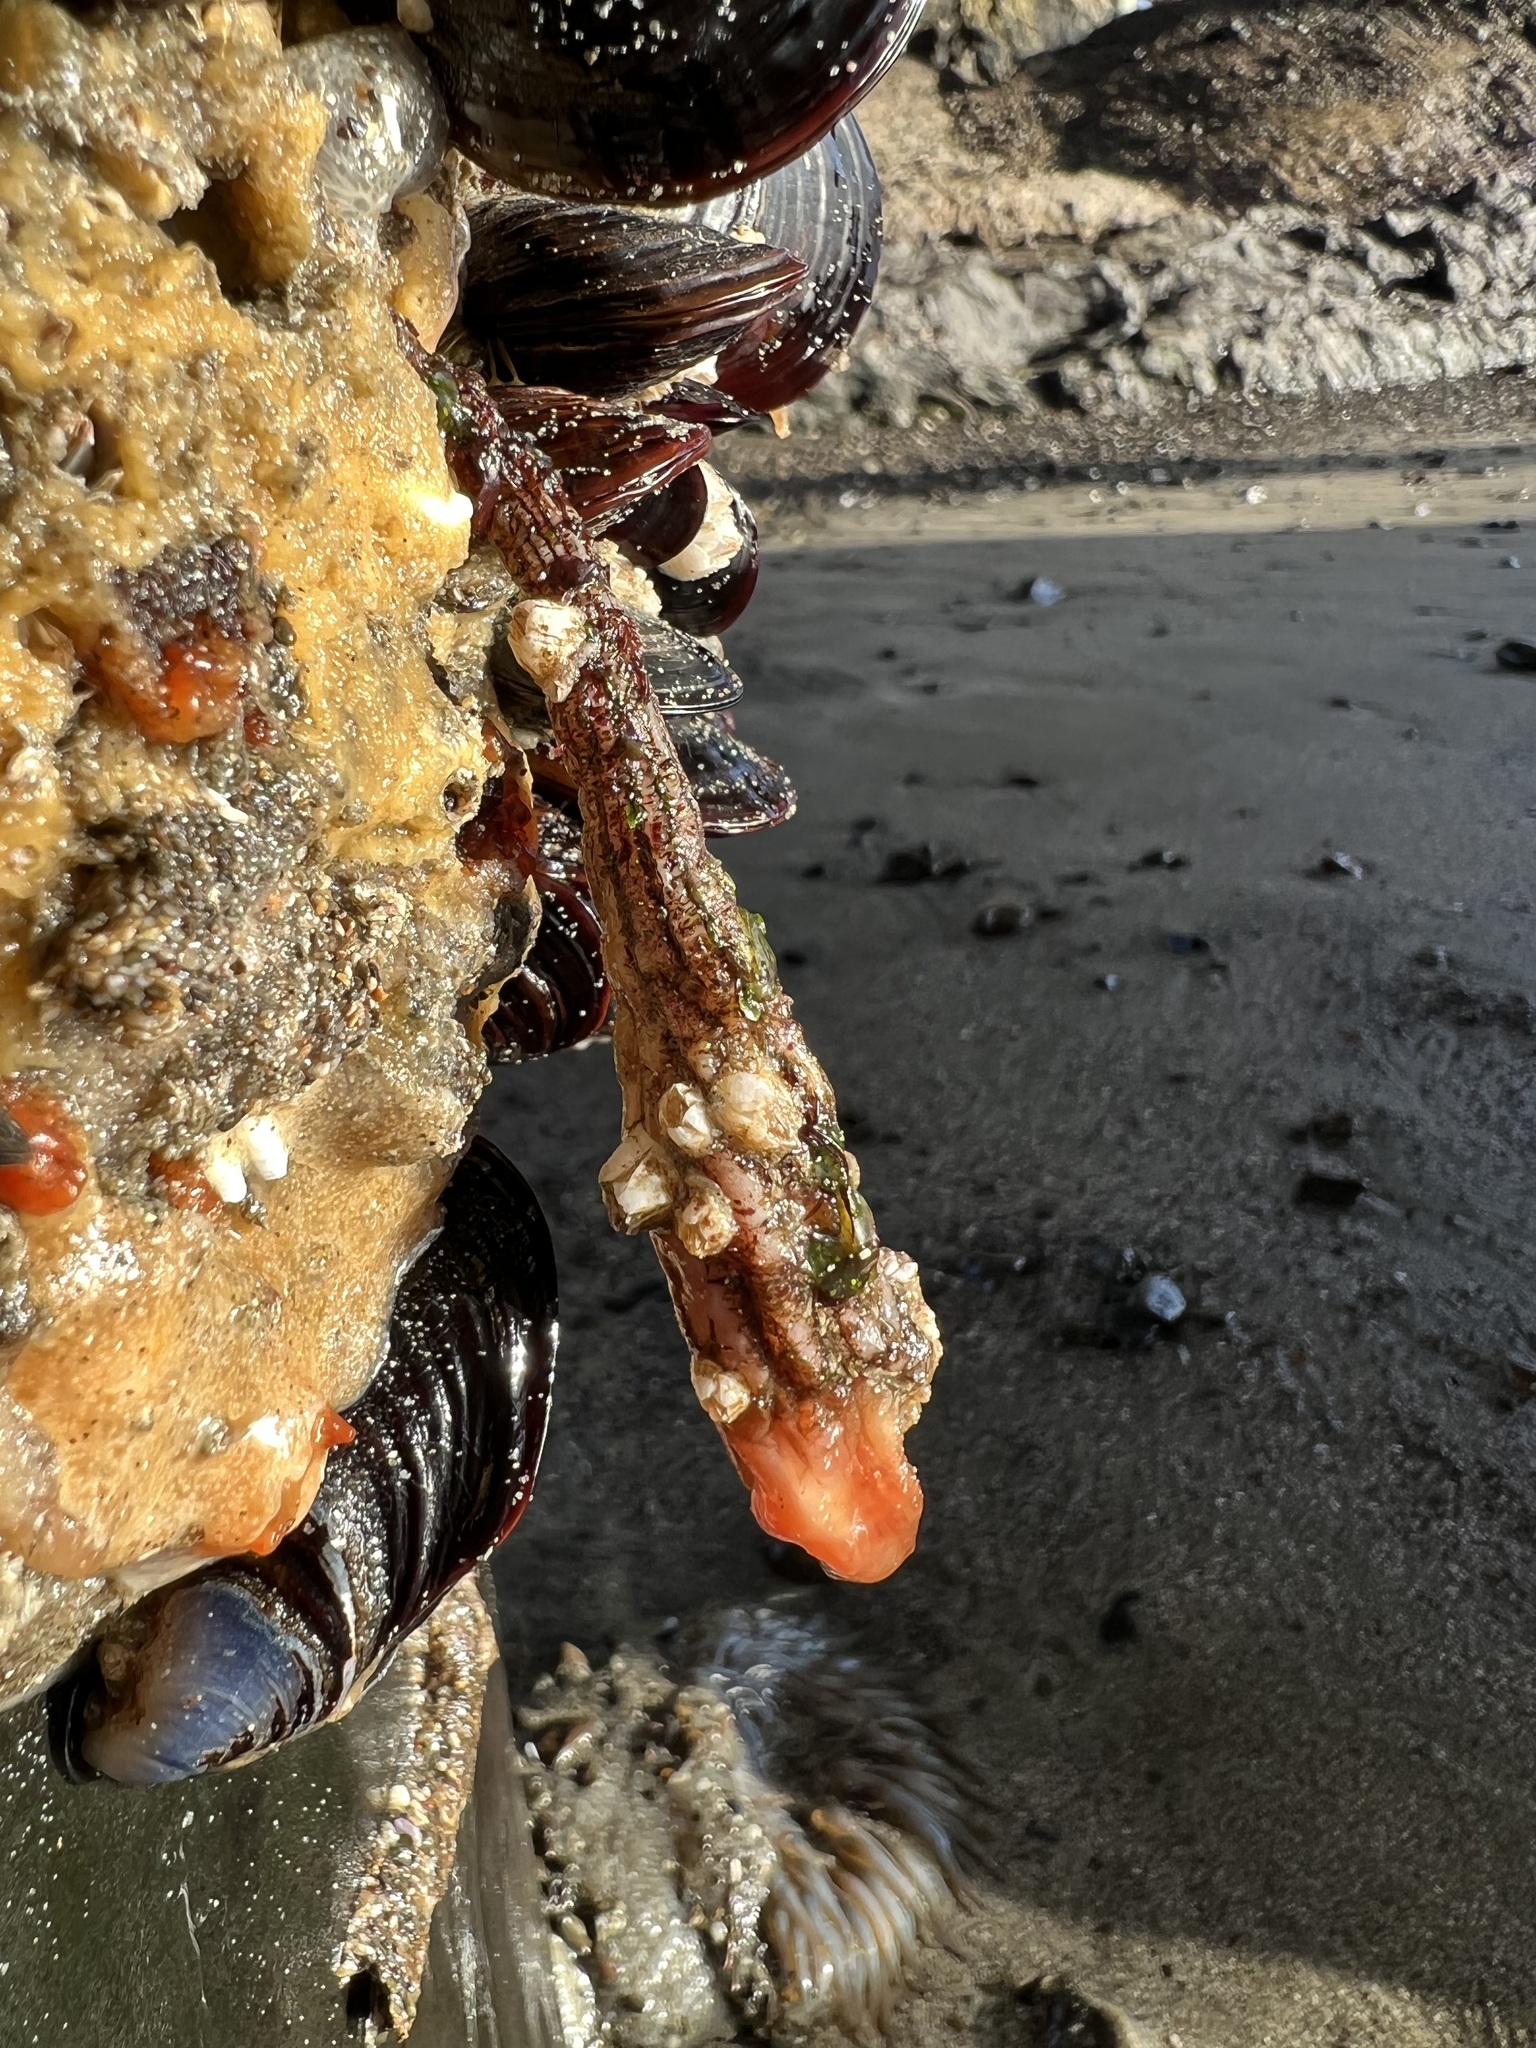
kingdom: Animalia
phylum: Chordata
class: Ascidiacea
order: Stolidobranchia
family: Styelidae
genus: Styela
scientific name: Styela montereyensis
